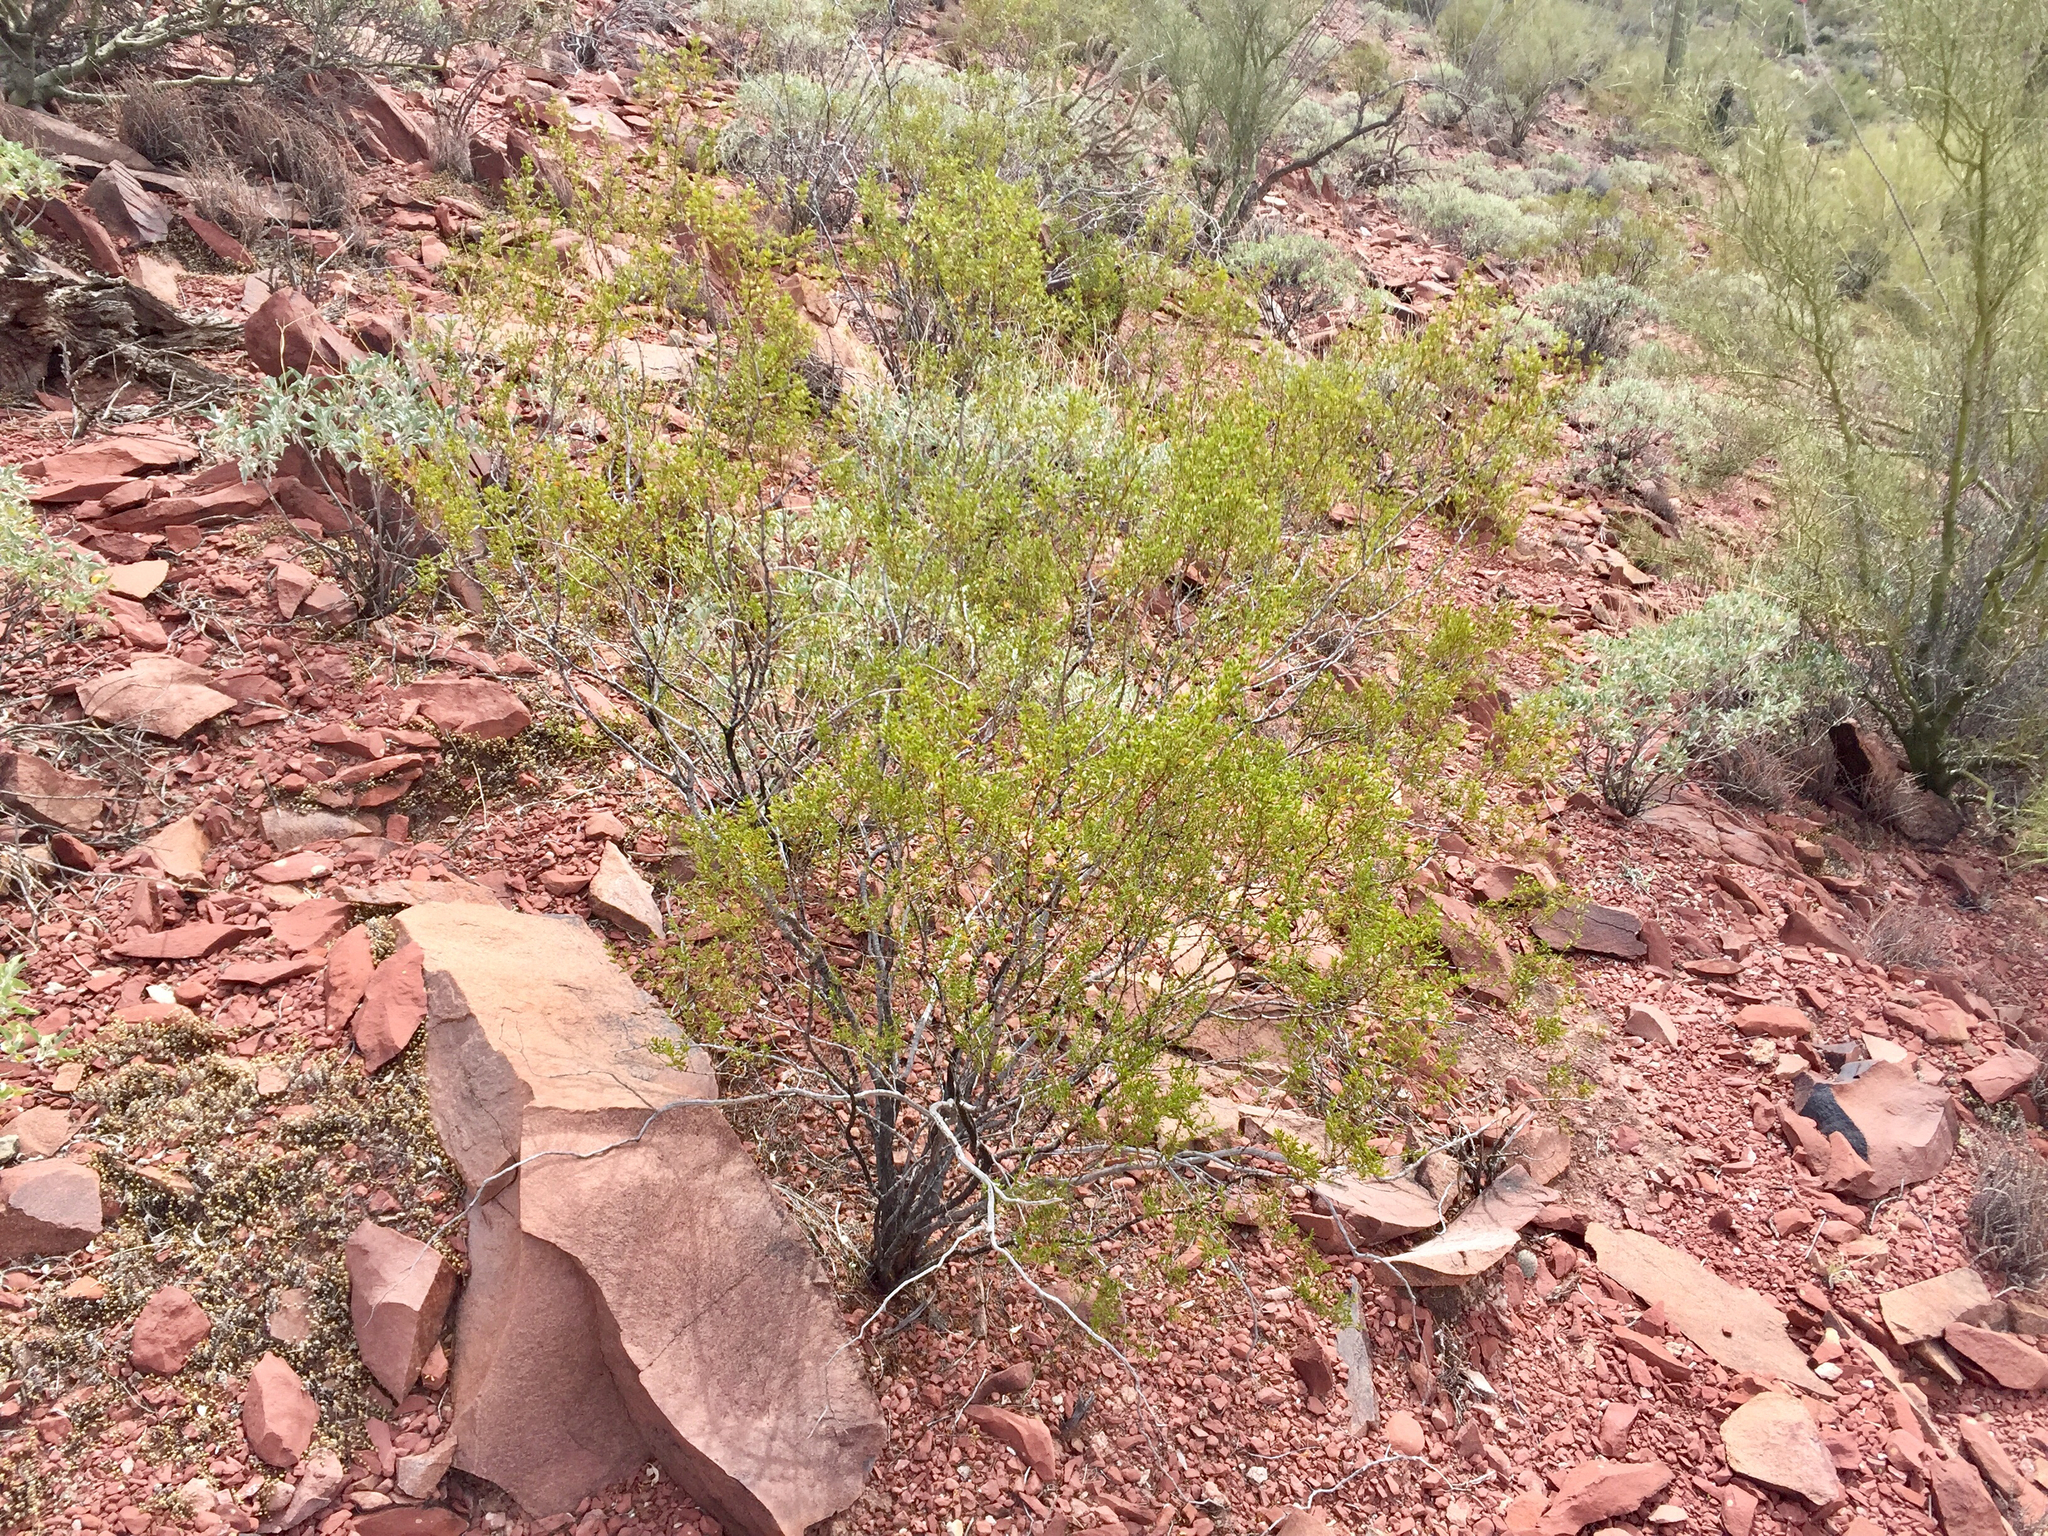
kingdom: Plantae
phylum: Tracheophyta
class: Magnoliopsida
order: Zygophyllales
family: Zygophyllaceae
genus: Larrea
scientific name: Larrea tridentata
